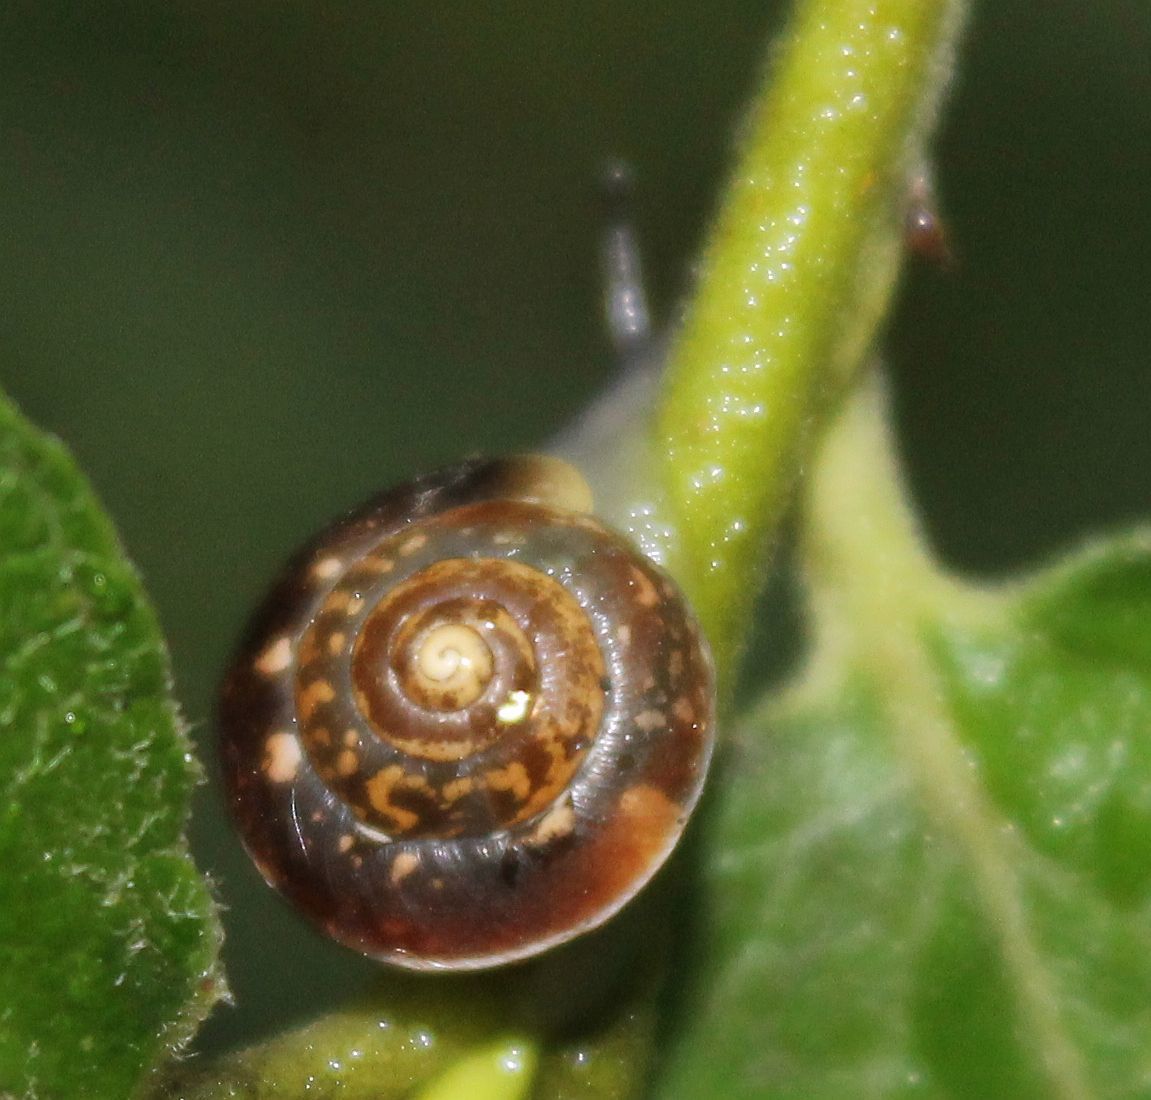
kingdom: Animalia
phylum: Mollusca
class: Gastropoda
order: Stylommatophora
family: Hygromiidae
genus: Hygromia
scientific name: Hygromia cinctella
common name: Girdled snail
